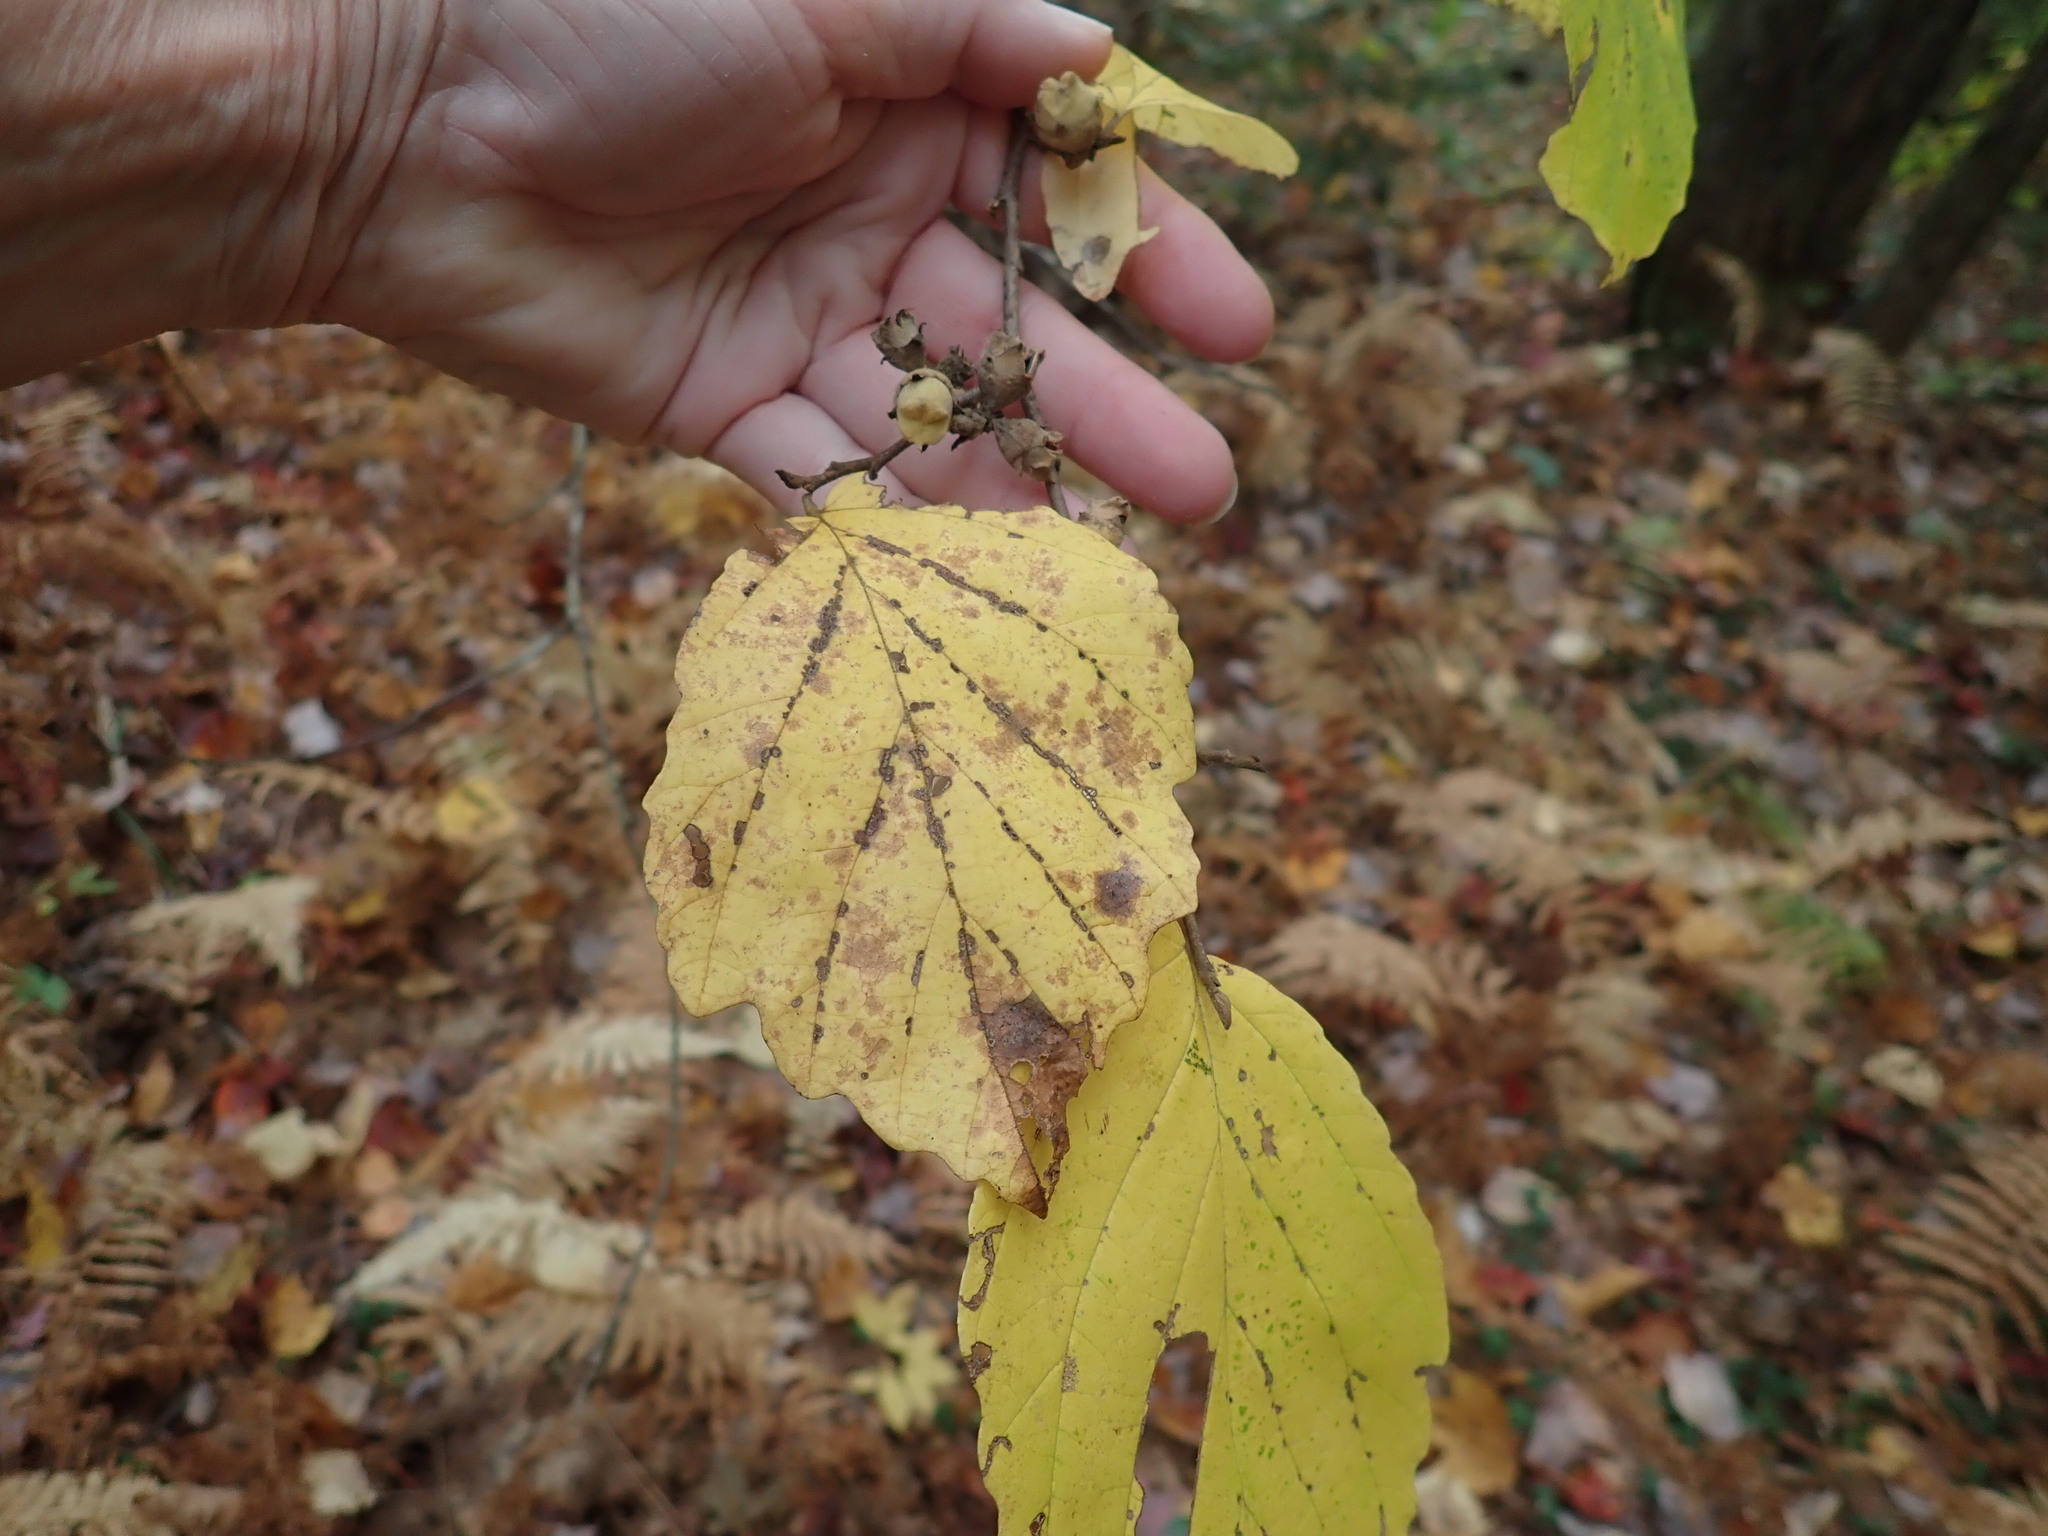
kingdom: Plantae
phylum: Tracheophyta
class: Magnoliopsida
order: Saxifragales
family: Hamamelidaceae
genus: Hamamelis
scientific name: Hamamelis virginiana
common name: Witch-hazel
